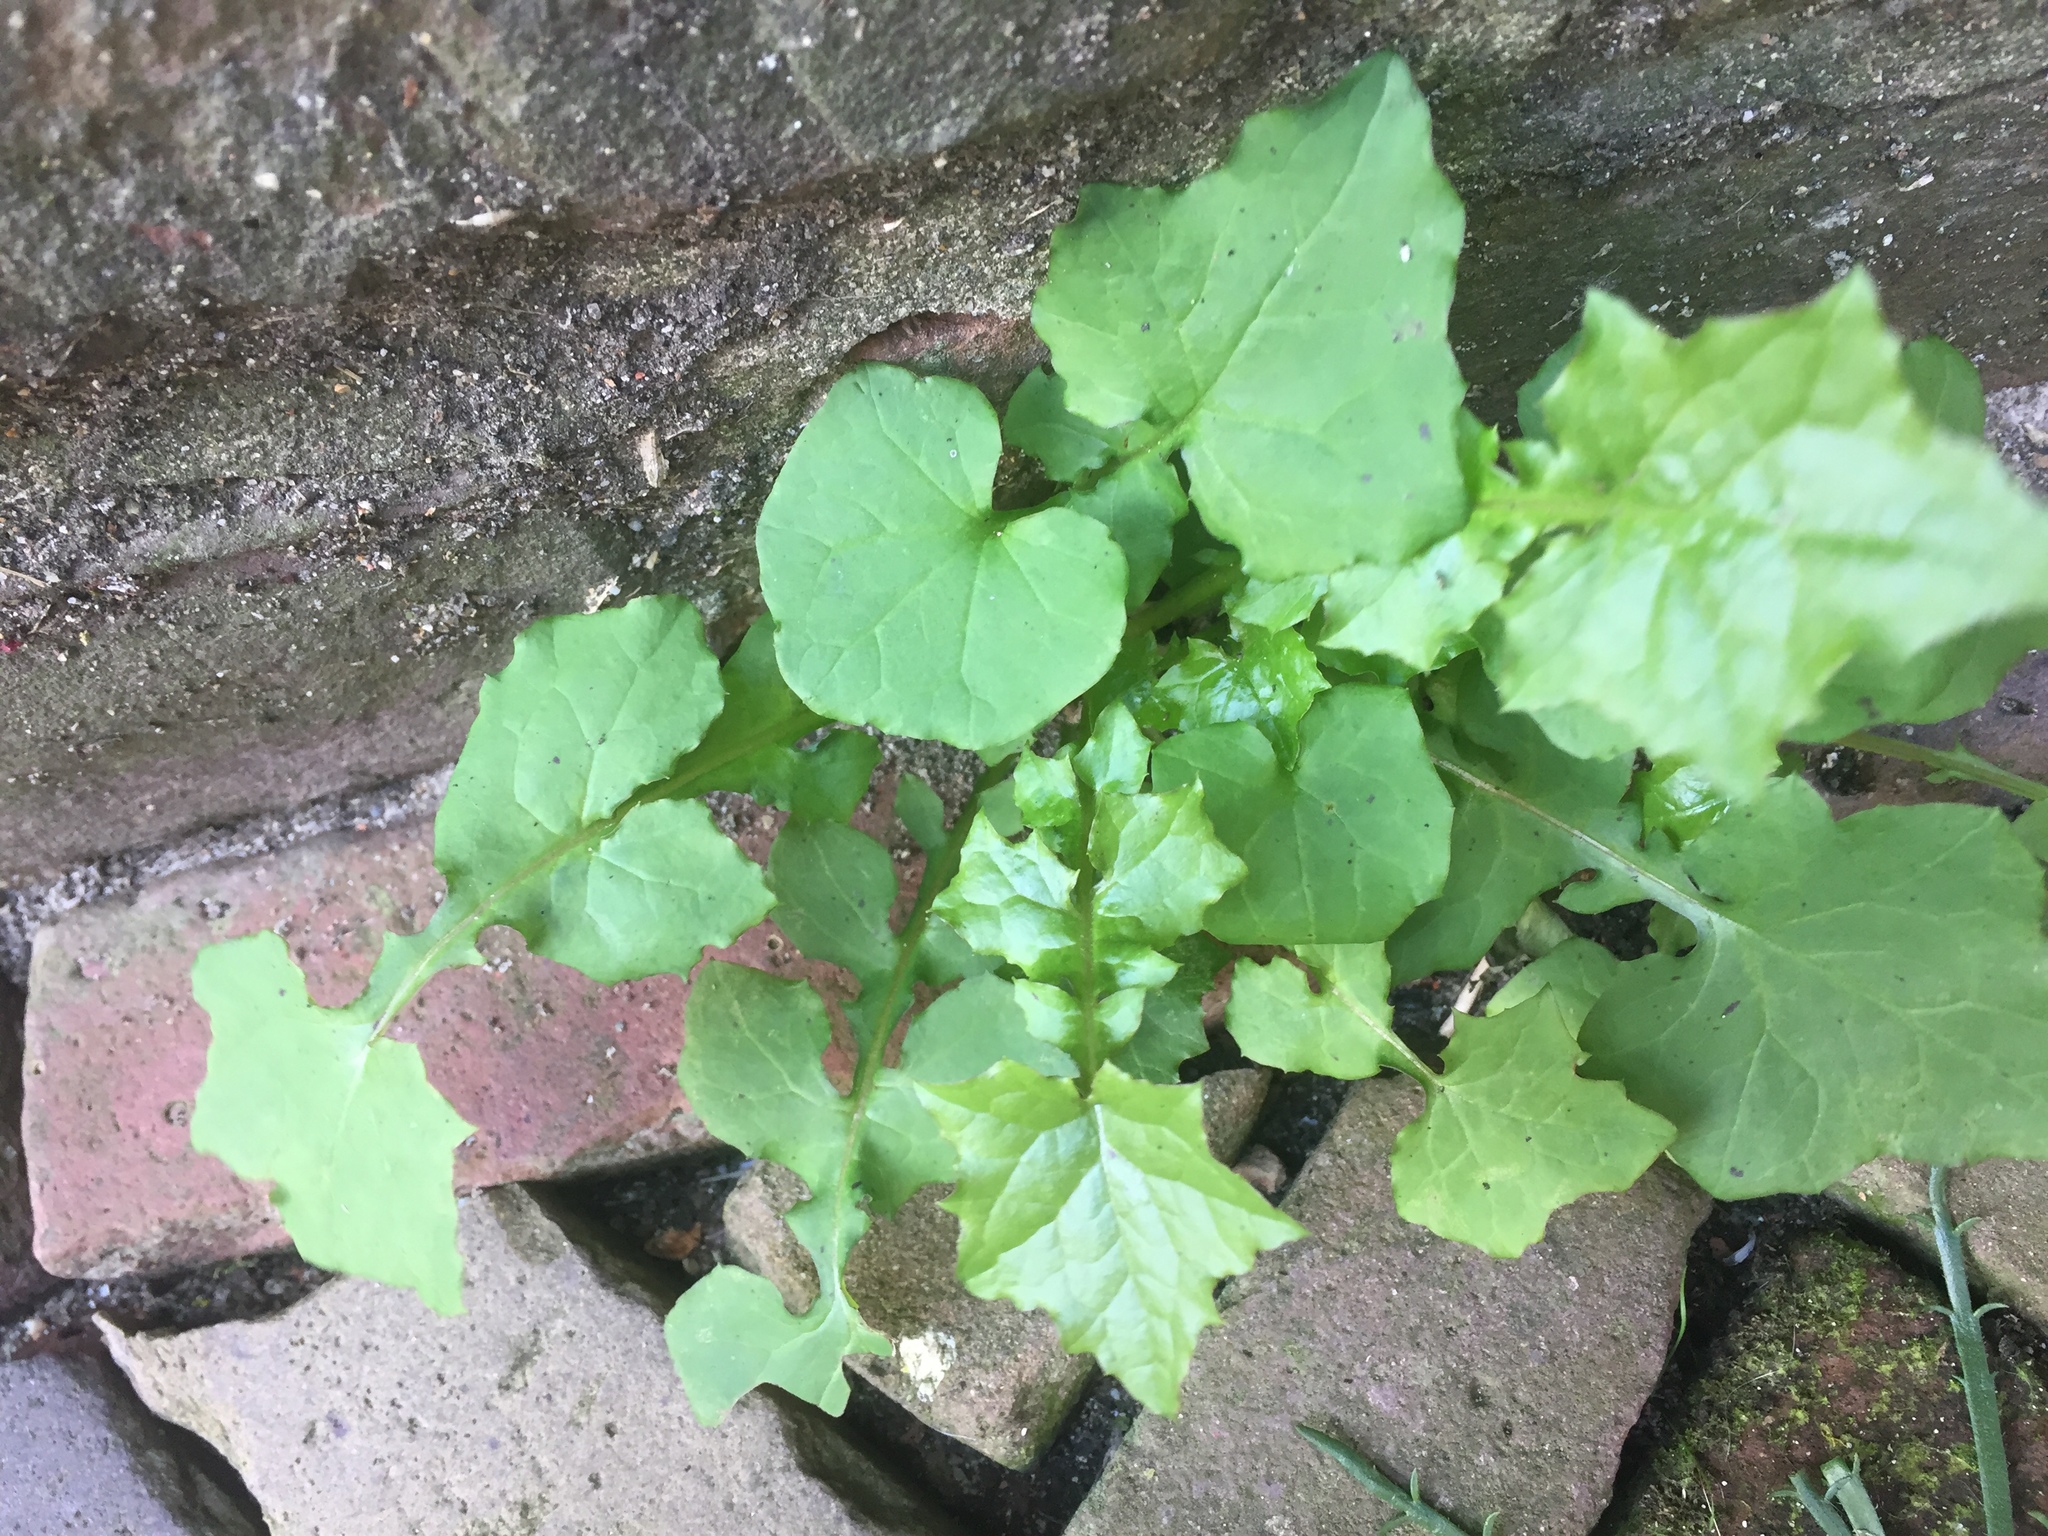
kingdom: Plantae
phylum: Tracheophyta
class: Magnoliopsida
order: Asterales
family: Asteraceae
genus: Mycelis
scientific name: Mycelis muralis
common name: Wall lettuce
